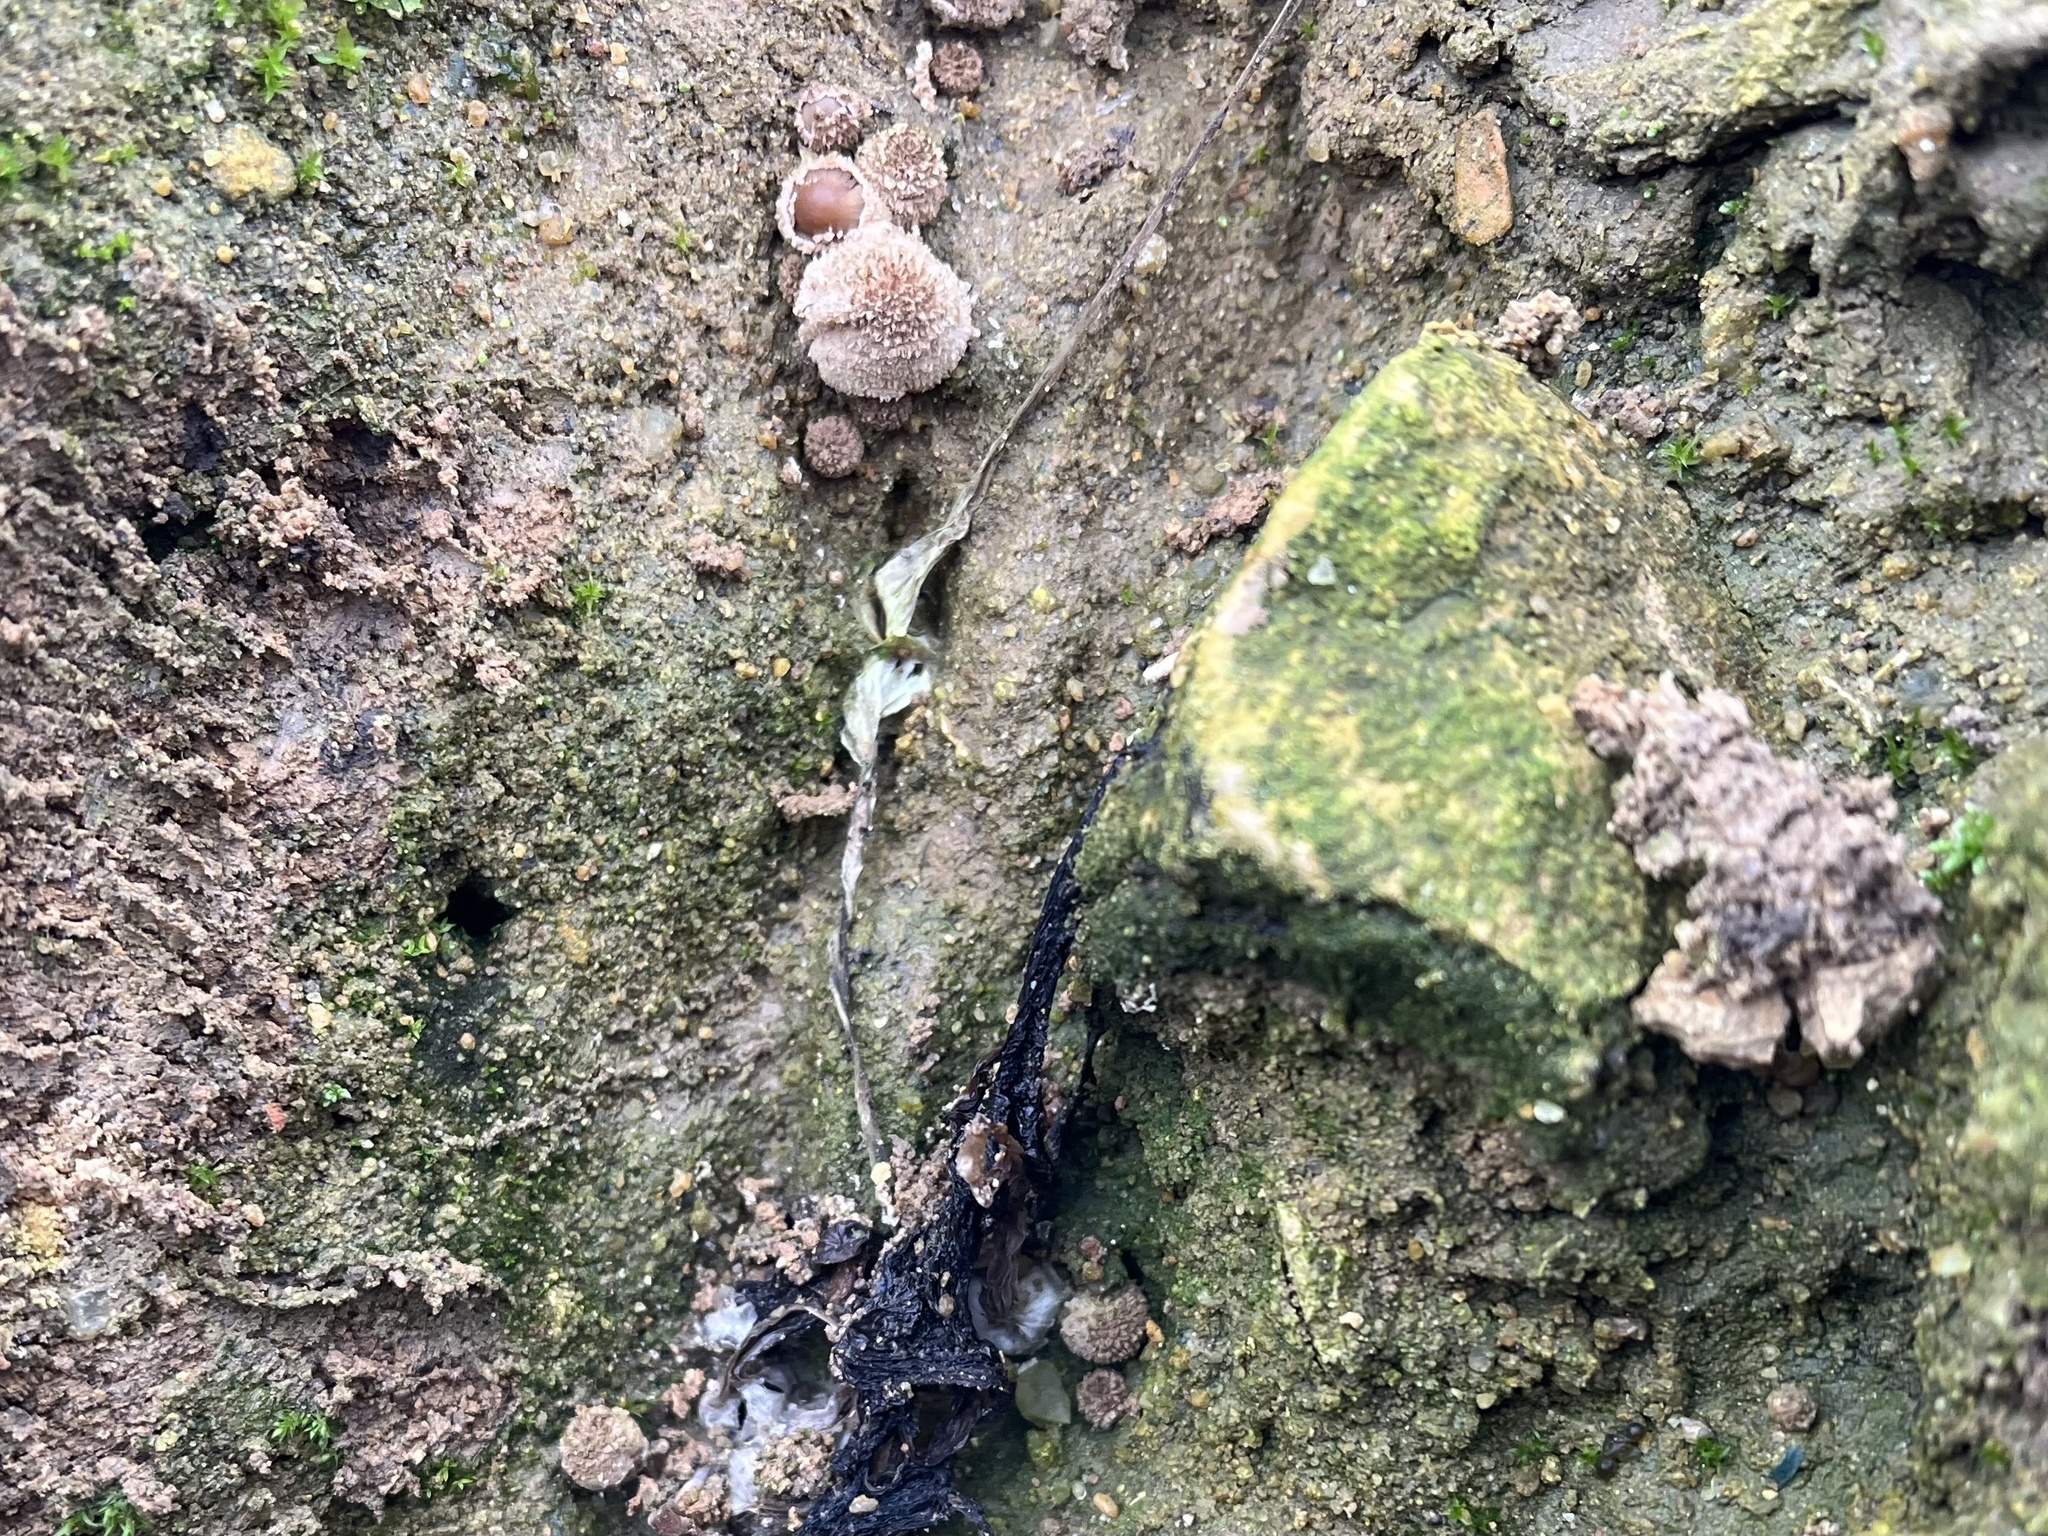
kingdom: Fungi
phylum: Basidiomycota
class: Agaricomycetes
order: Agaricales
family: Agaricaceae
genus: Lycoperdon
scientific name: Lycoperdon marginatum
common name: Peeling puffball
